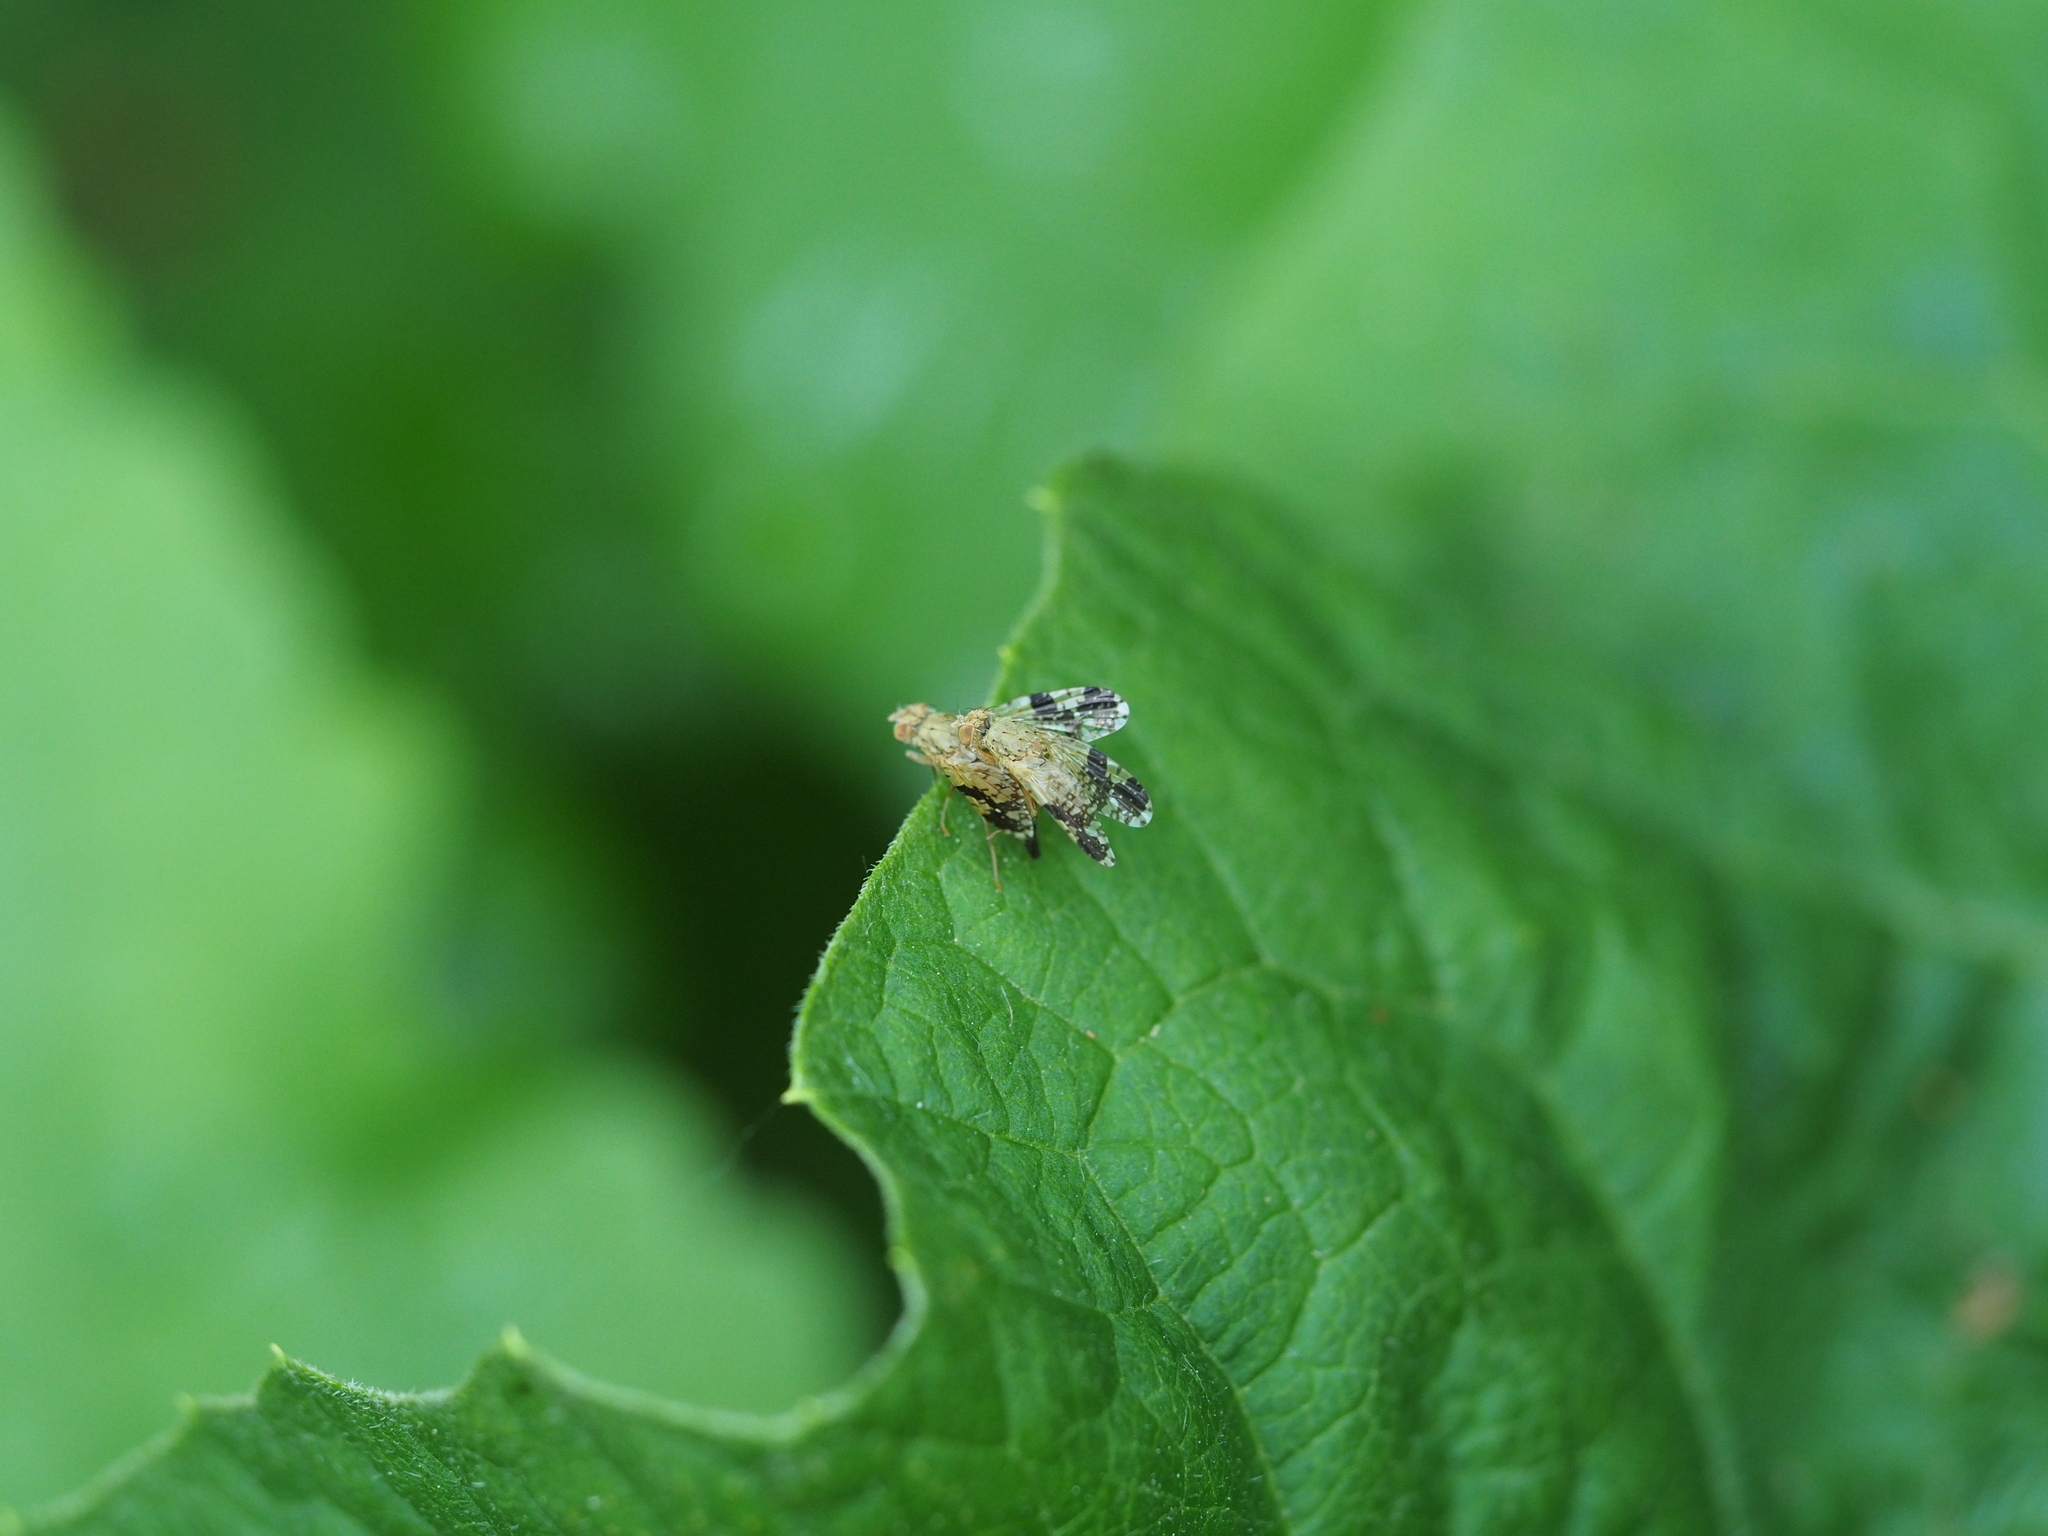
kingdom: Animalia
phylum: Arthropoda
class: Insecta
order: Diptera
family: Tephritidae
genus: Tephritis
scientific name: Tephritis bardanae
